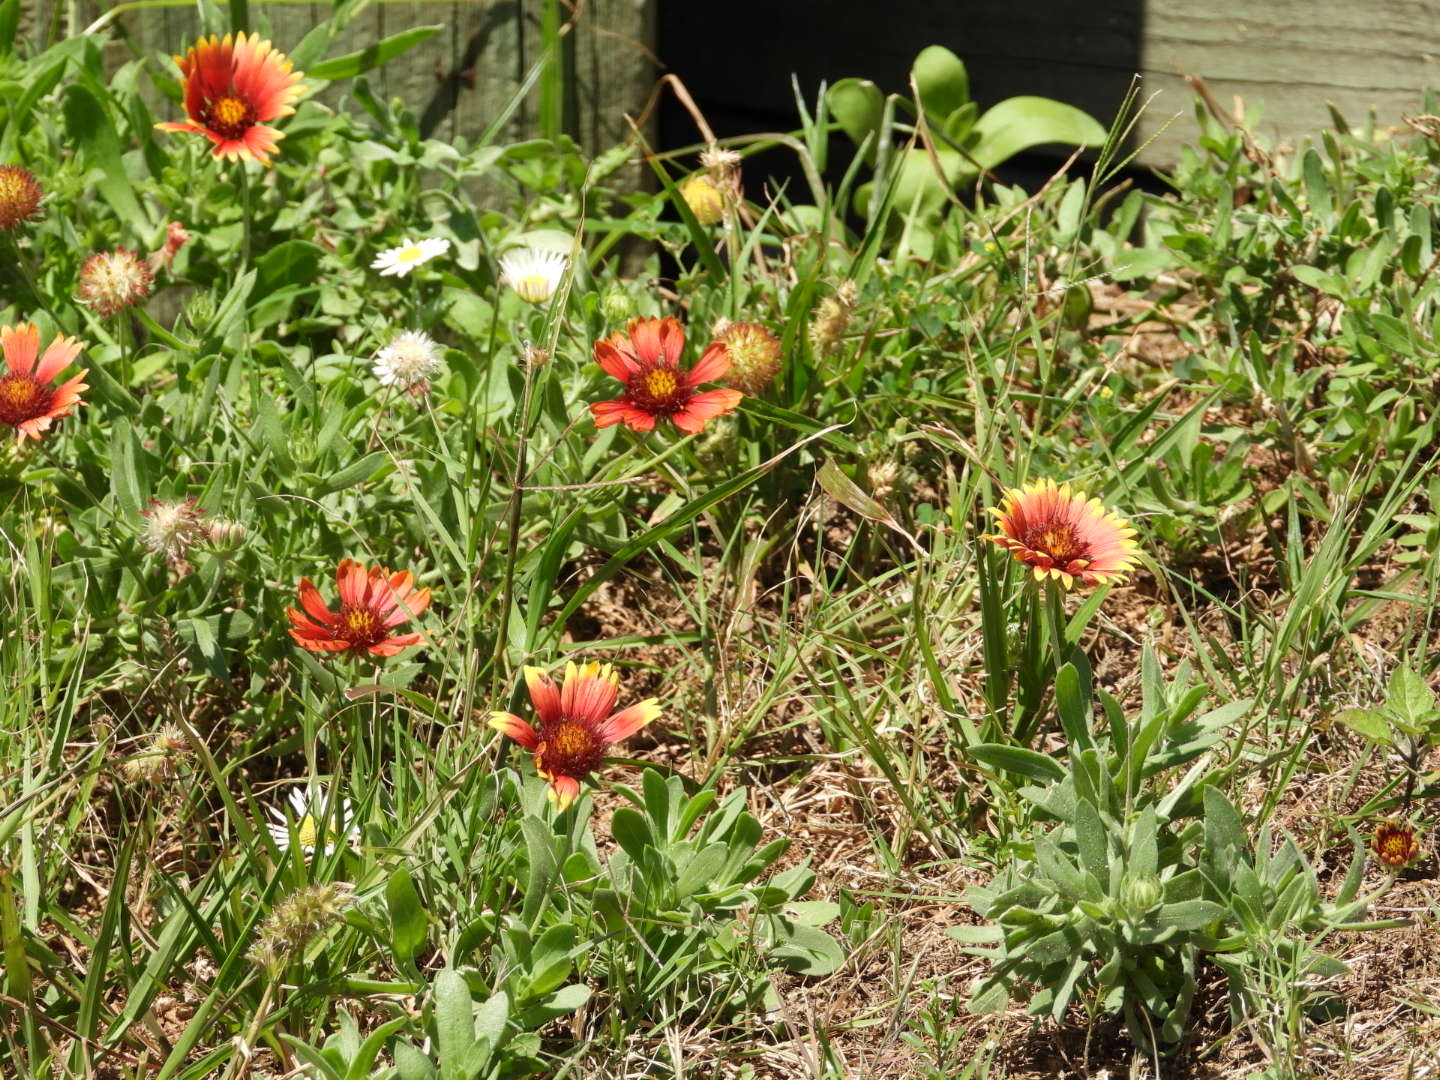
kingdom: Plantae
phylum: Tracheophyta
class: Magnoliopsida
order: Asterales
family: Asteraceae
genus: Gaillardia
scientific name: Gaillardia pulchella
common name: Firewheel
